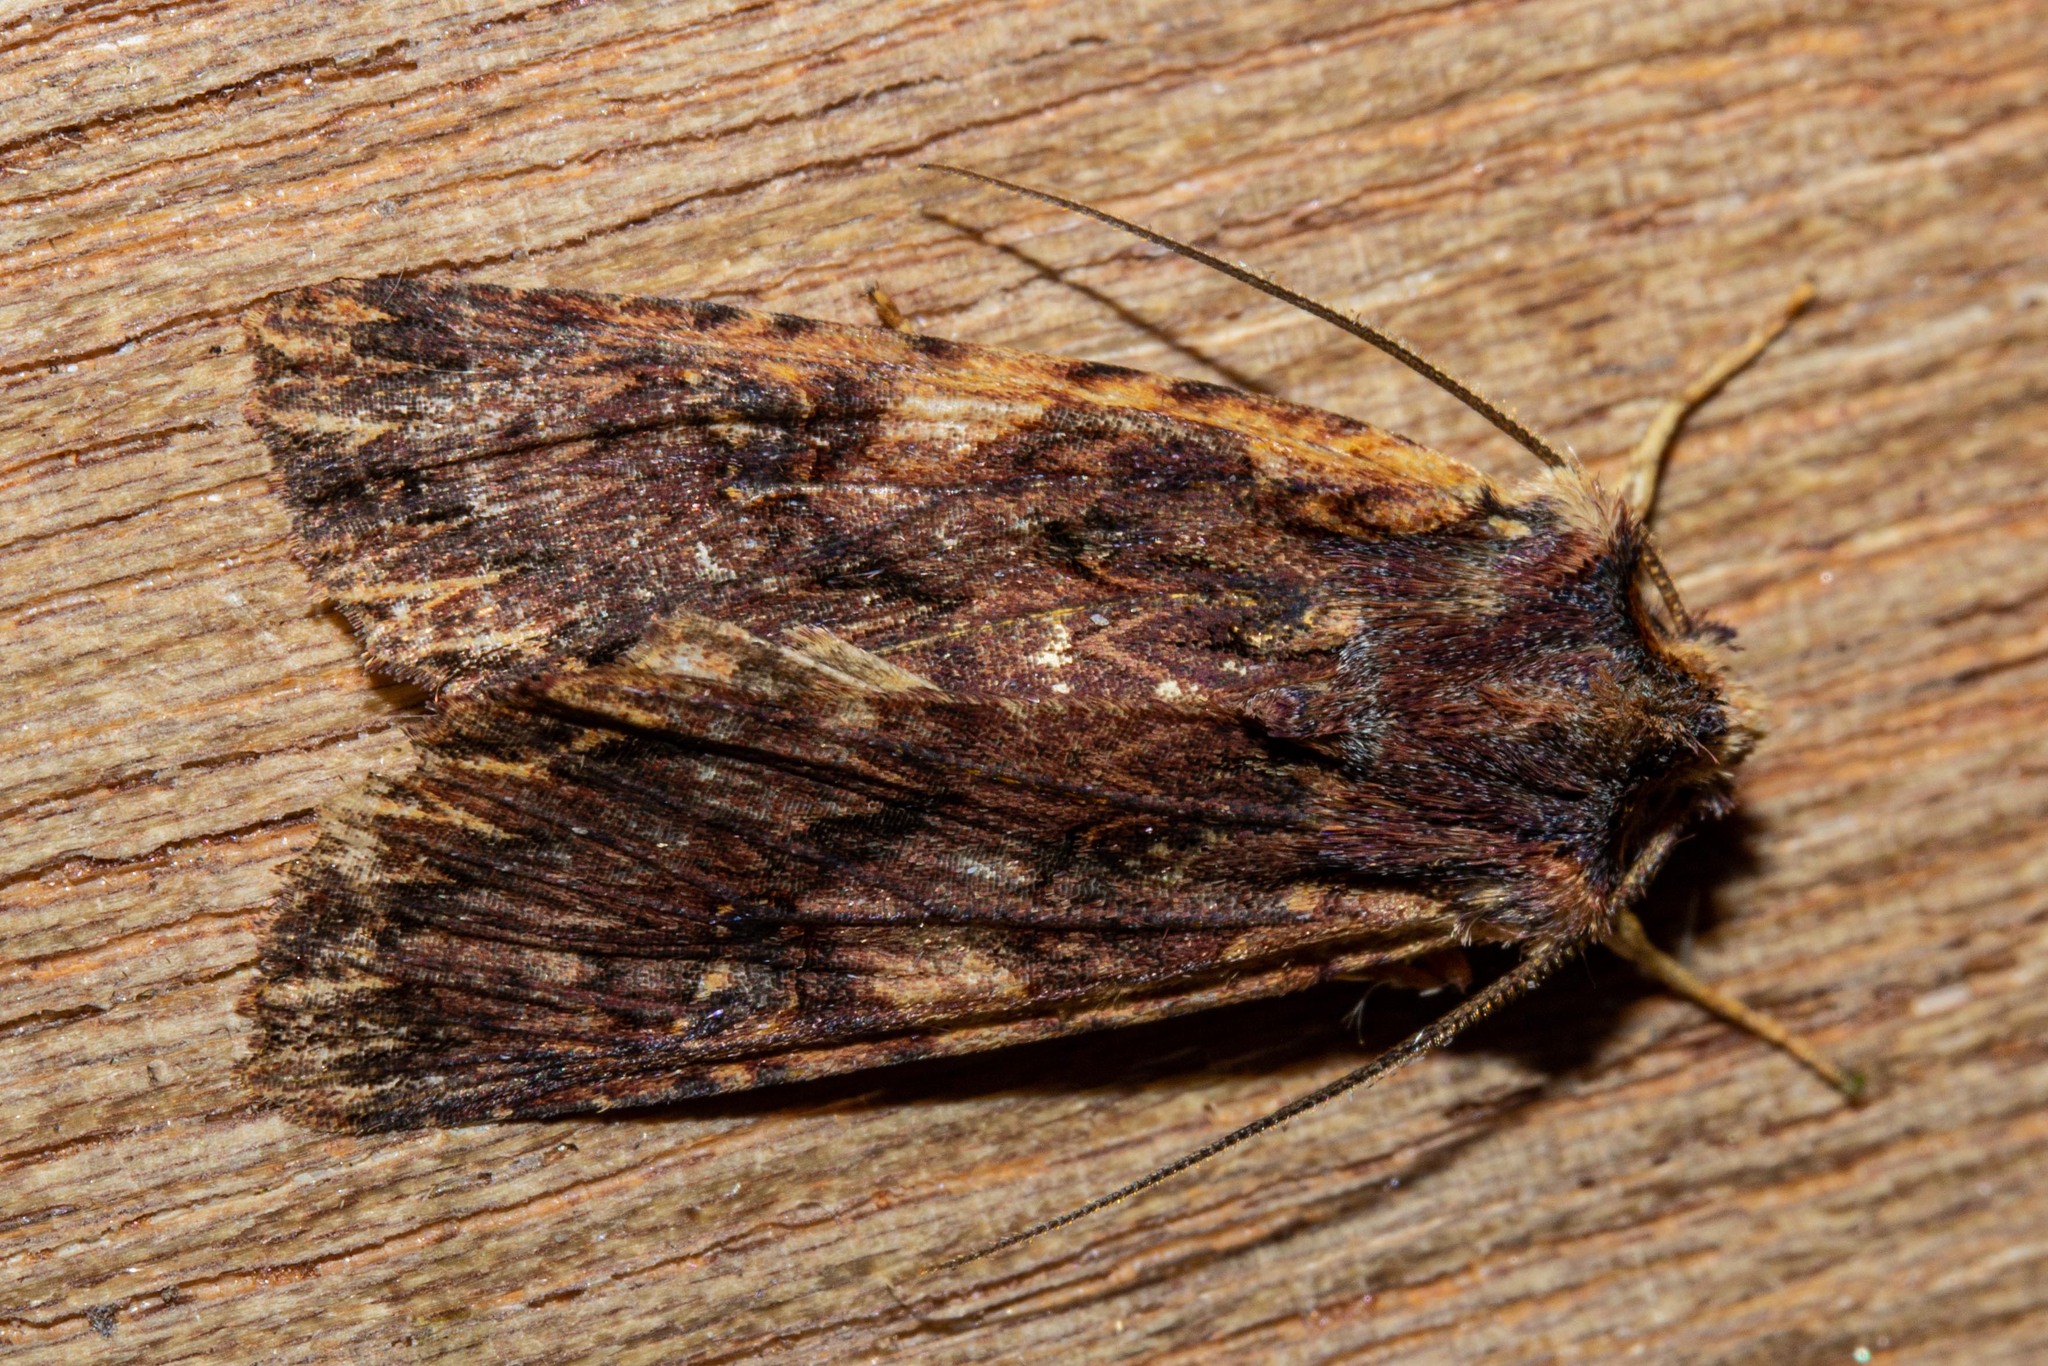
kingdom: Animalia
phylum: Arthropoda
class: Insecta
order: Lepidoptera
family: Noctuidae
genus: Meterana
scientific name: Meterana alcyone
